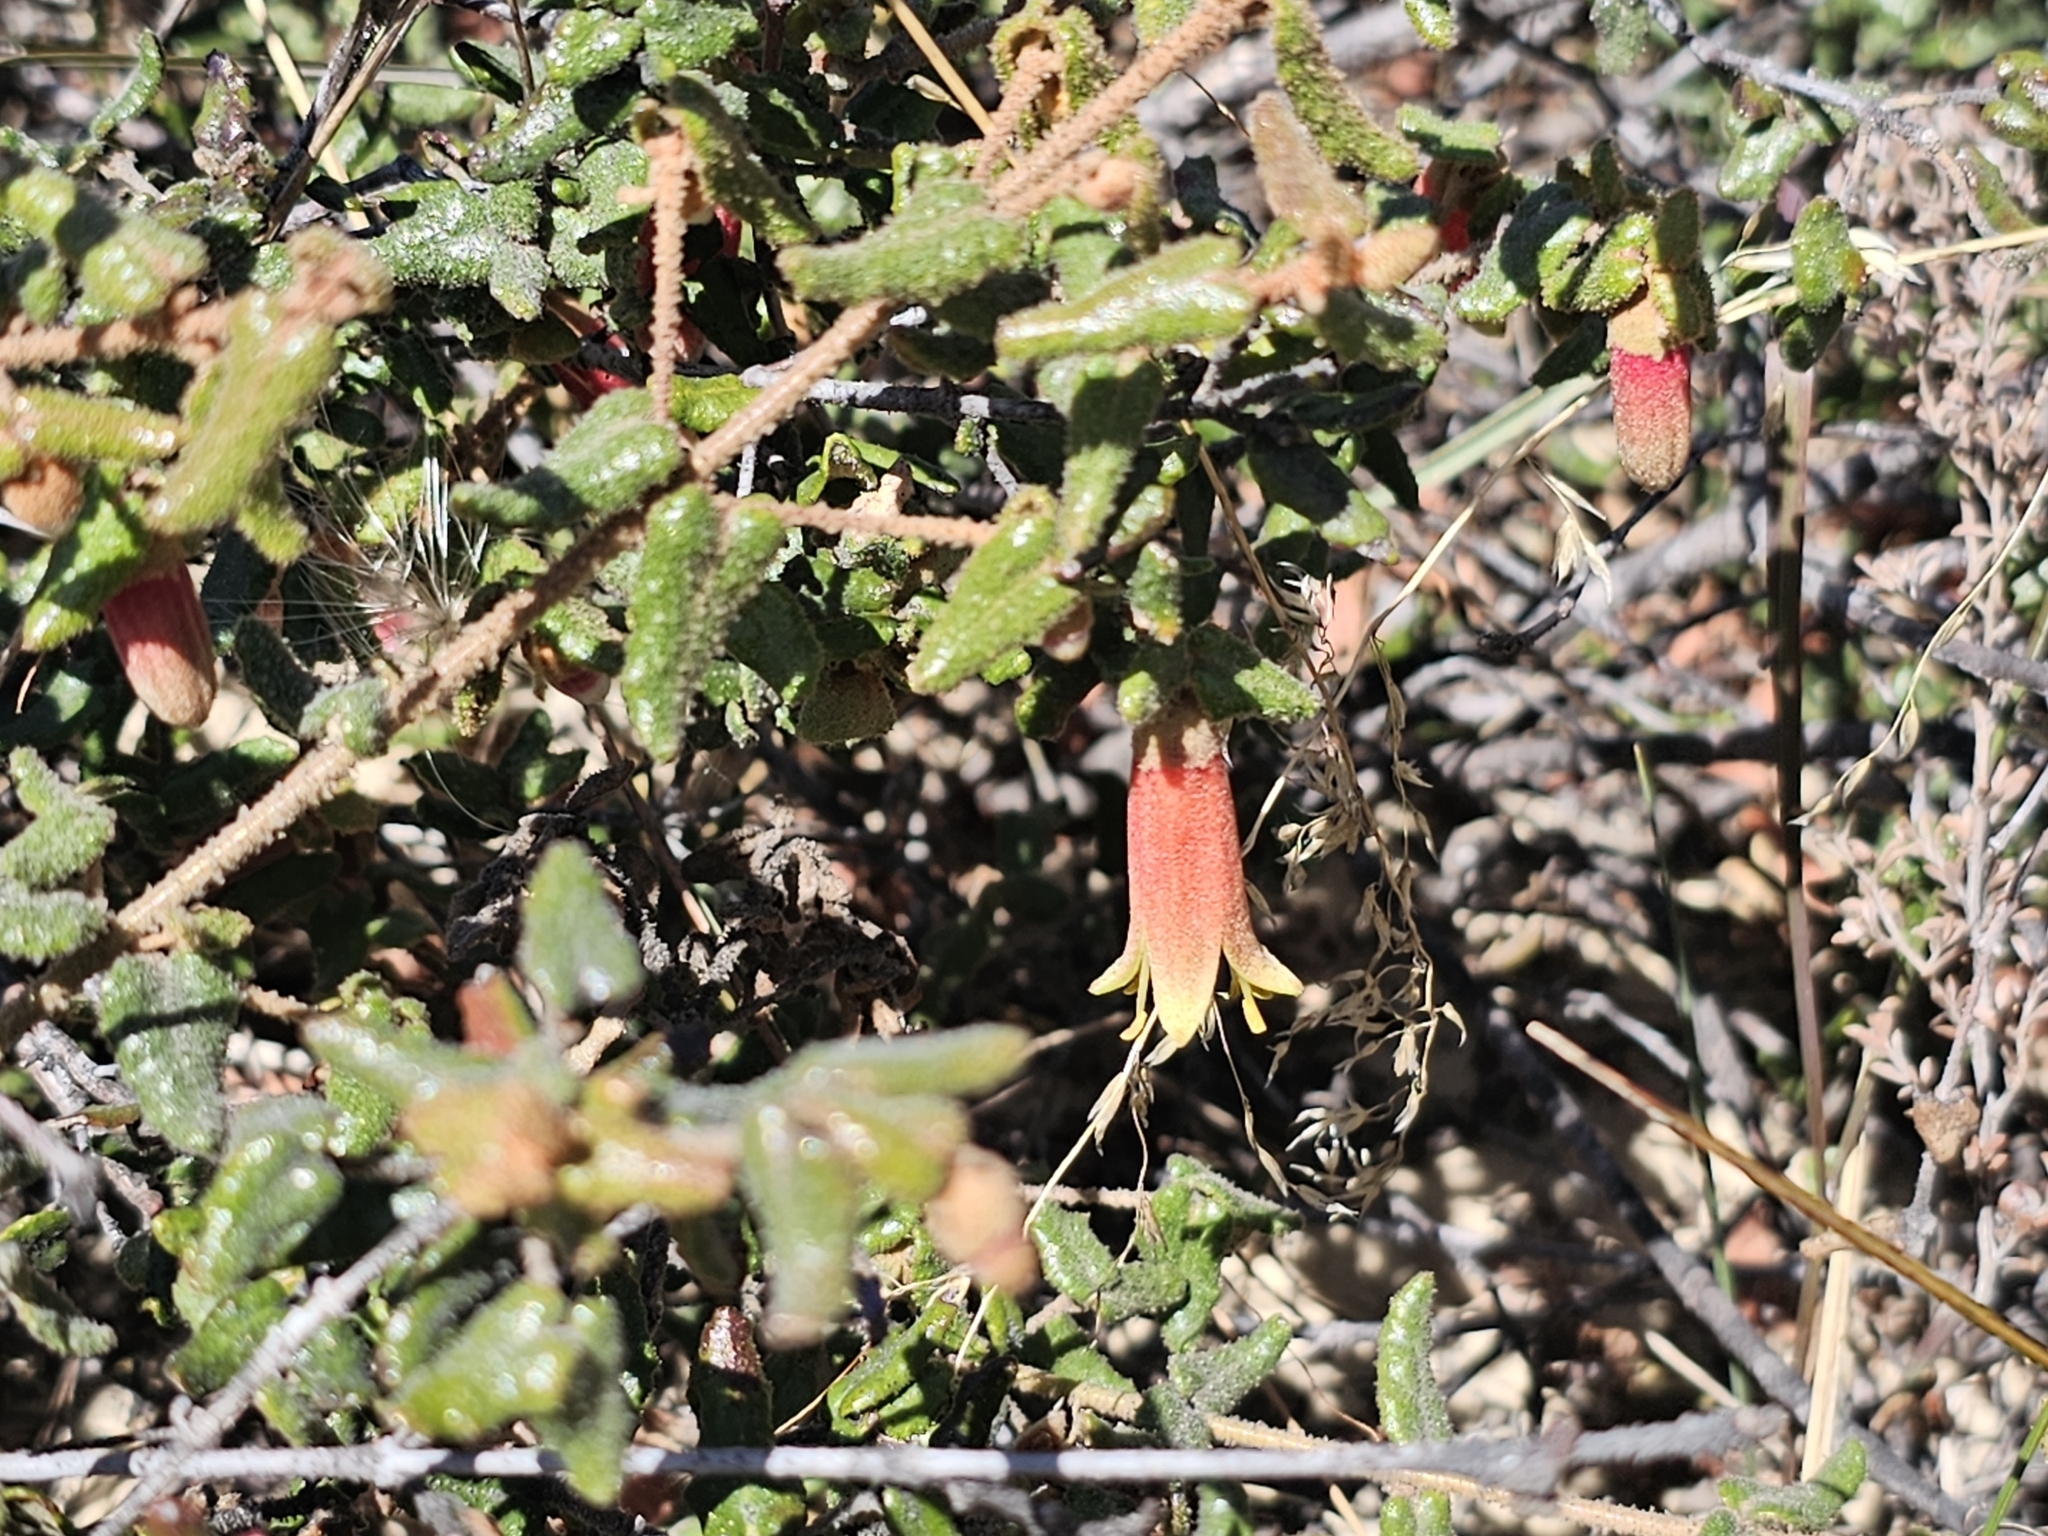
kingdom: Plantae
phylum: Tracheophyta
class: Magnoliopsida
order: Sapindales
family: Rutaceae
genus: Correa
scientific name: Correa reflexa
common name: Common correa
